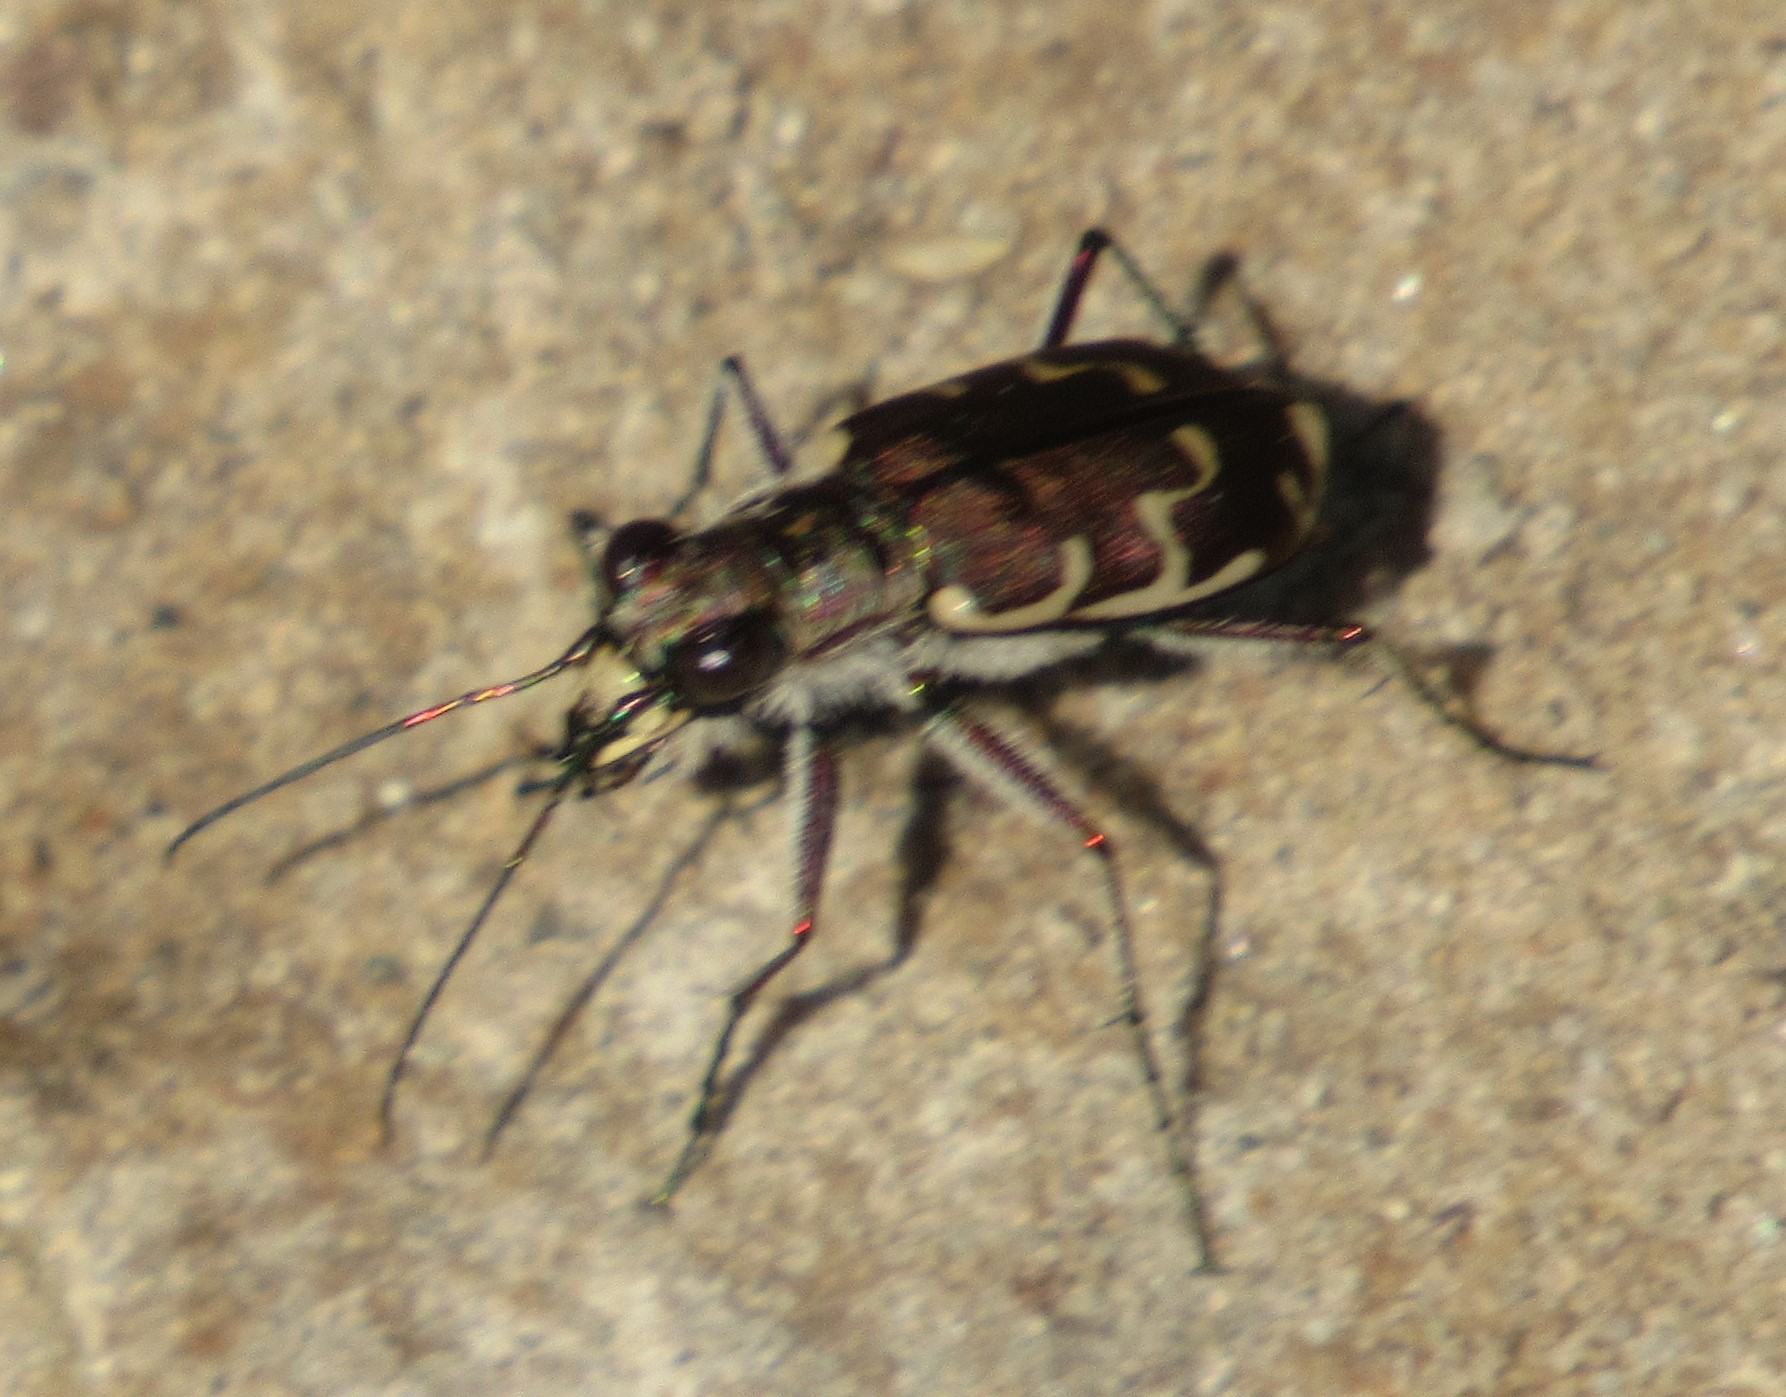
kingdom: Animalia
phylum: Arthropoda
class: Insecta
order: Coleoptera
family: Carabidae
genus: Cicindela
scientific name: Cicindela repanda
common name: Bronzed tiger beetle
